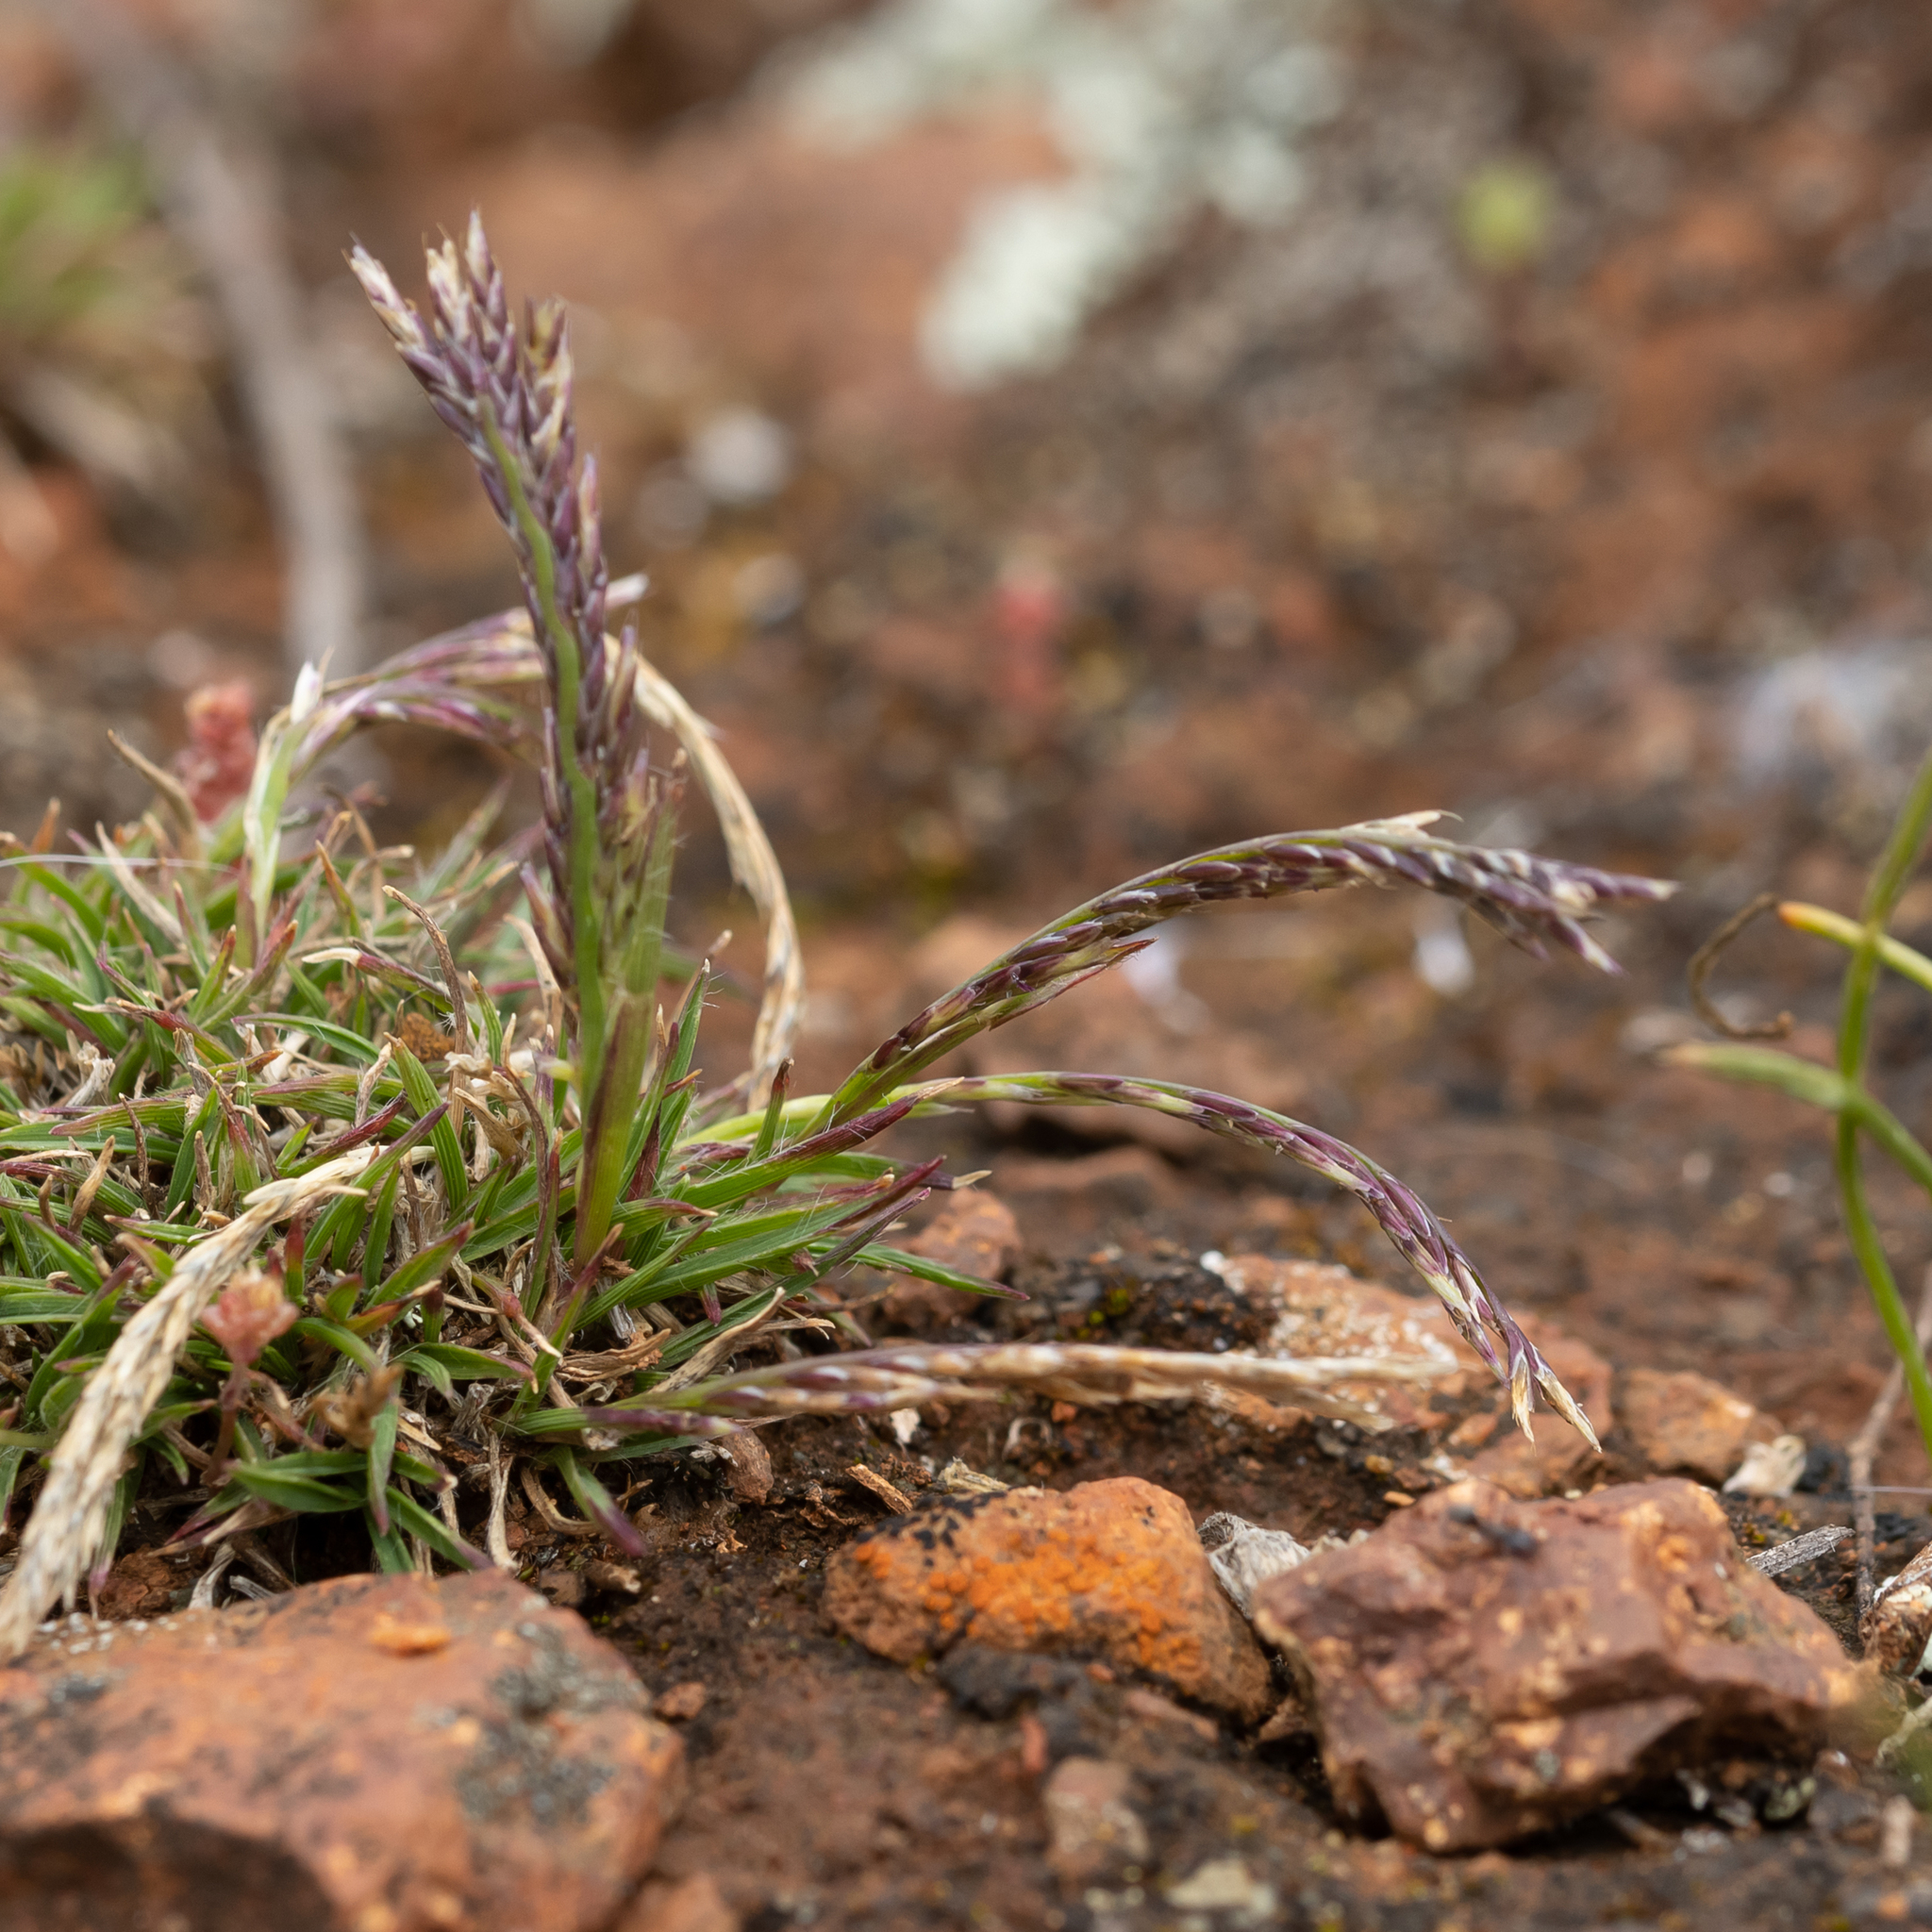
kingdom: Plantae
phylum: Tracheophyta
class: Liliopsida
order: Poales
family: Poaceae
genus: Tripogonella
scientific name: Tripogonella loliiformis
